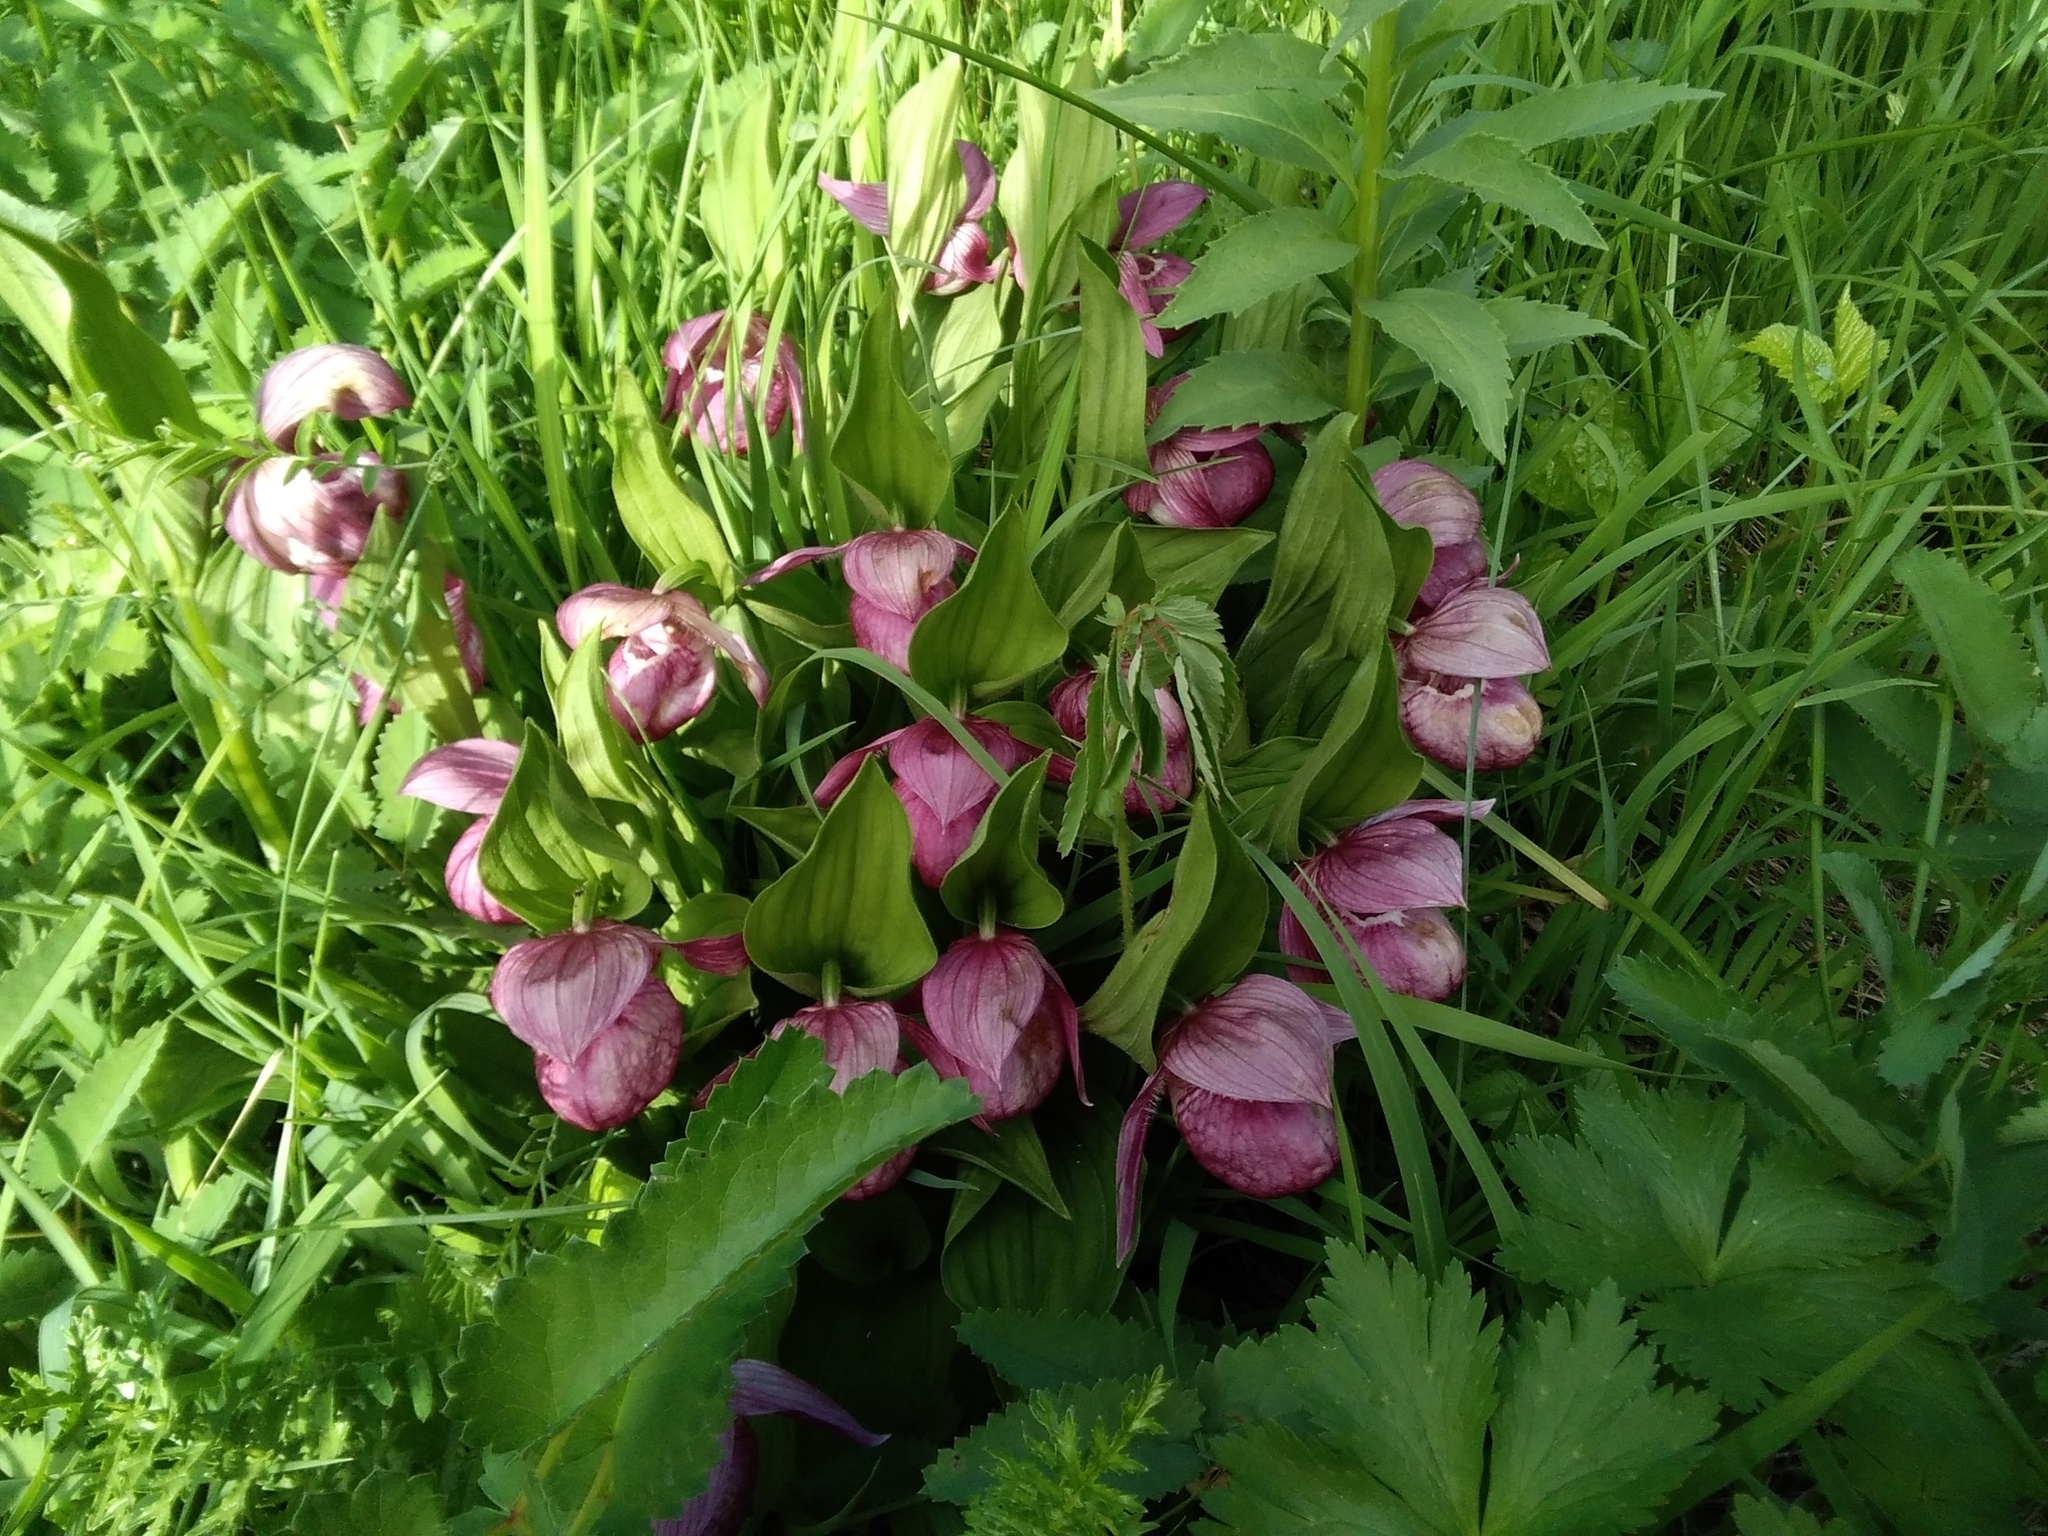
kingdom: Plantae
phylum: Tracheophyta
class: Liliopsida
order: Asparagales
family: Orchidaceae
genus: Cypripedium
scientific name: Cypripedium macranthos
